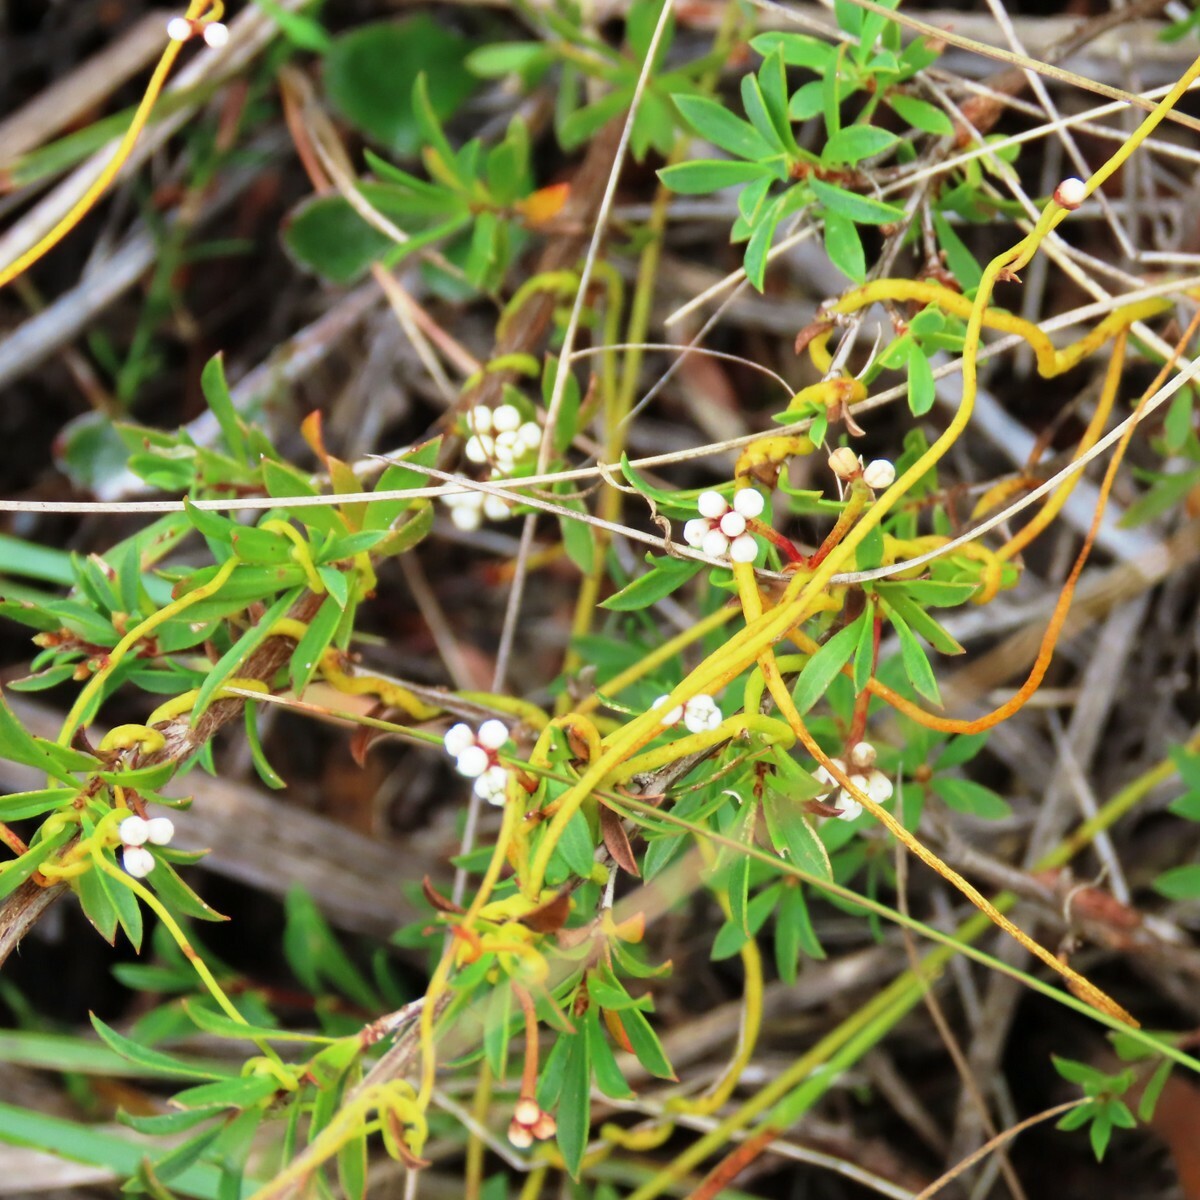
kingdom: Plantae
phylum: Tracheophyta
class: Magnoliopsida
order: Laurales
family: Lauraceae
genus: Cassytha
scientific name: Cassytha glabella
